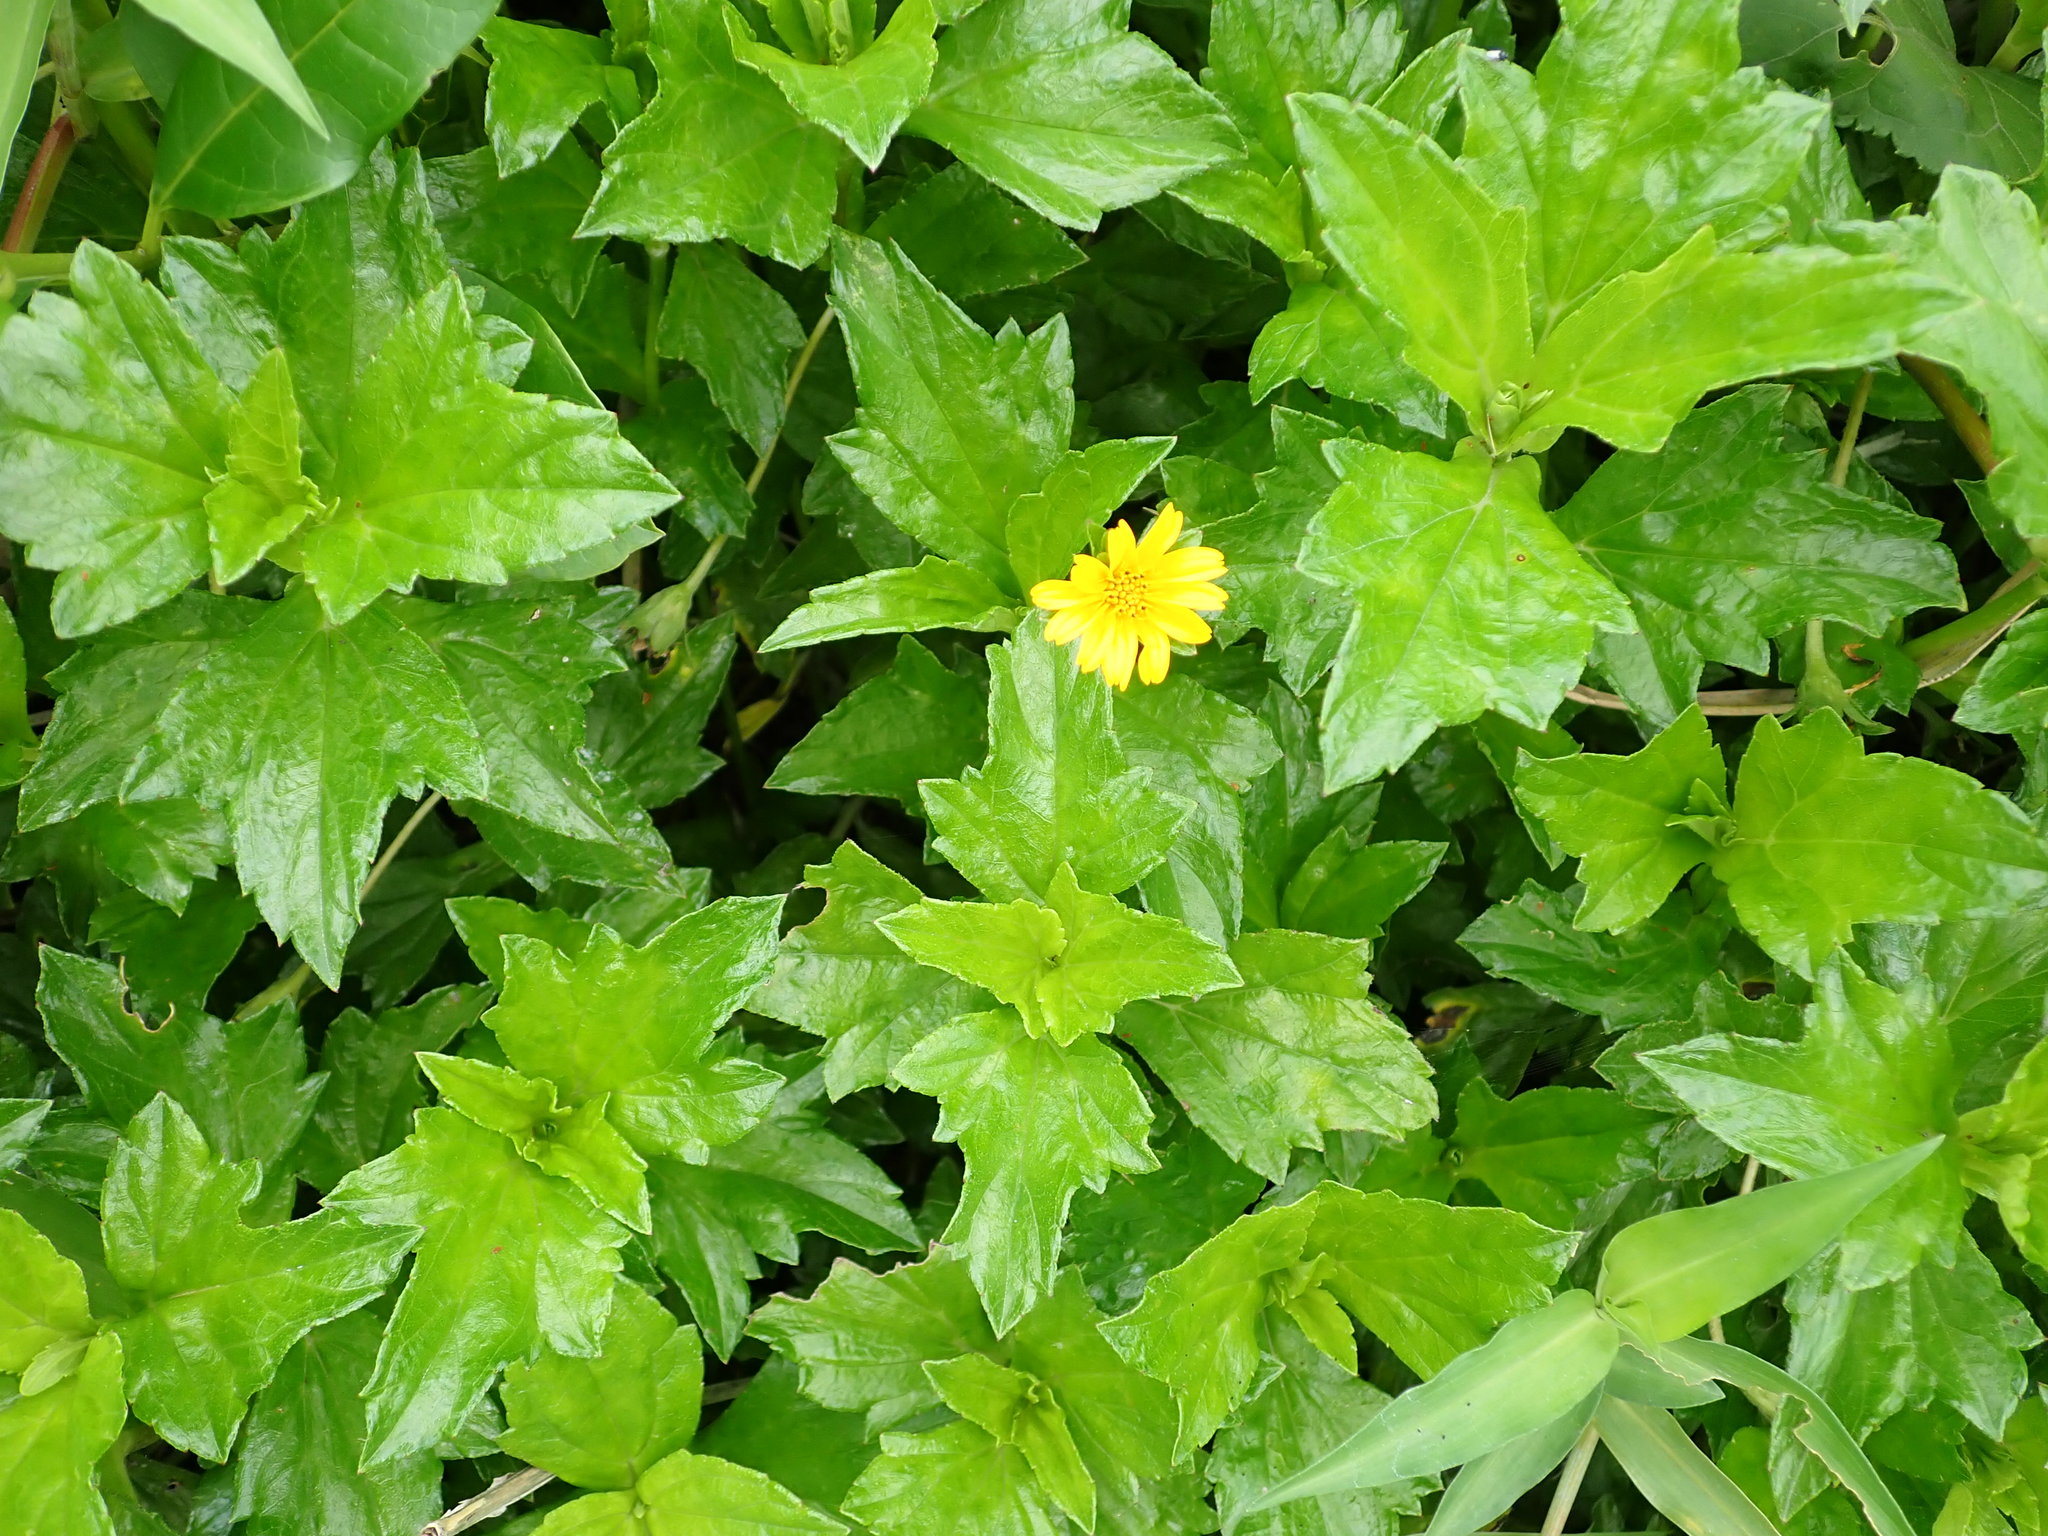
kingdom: Plantae
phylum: Tracheophyta
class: Magnoliopsida
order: Asterales
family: Asteraceae
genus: Sphagneticola
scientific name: Sphagneticola trilobata
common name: Bay biscayne creeping-oxeye
